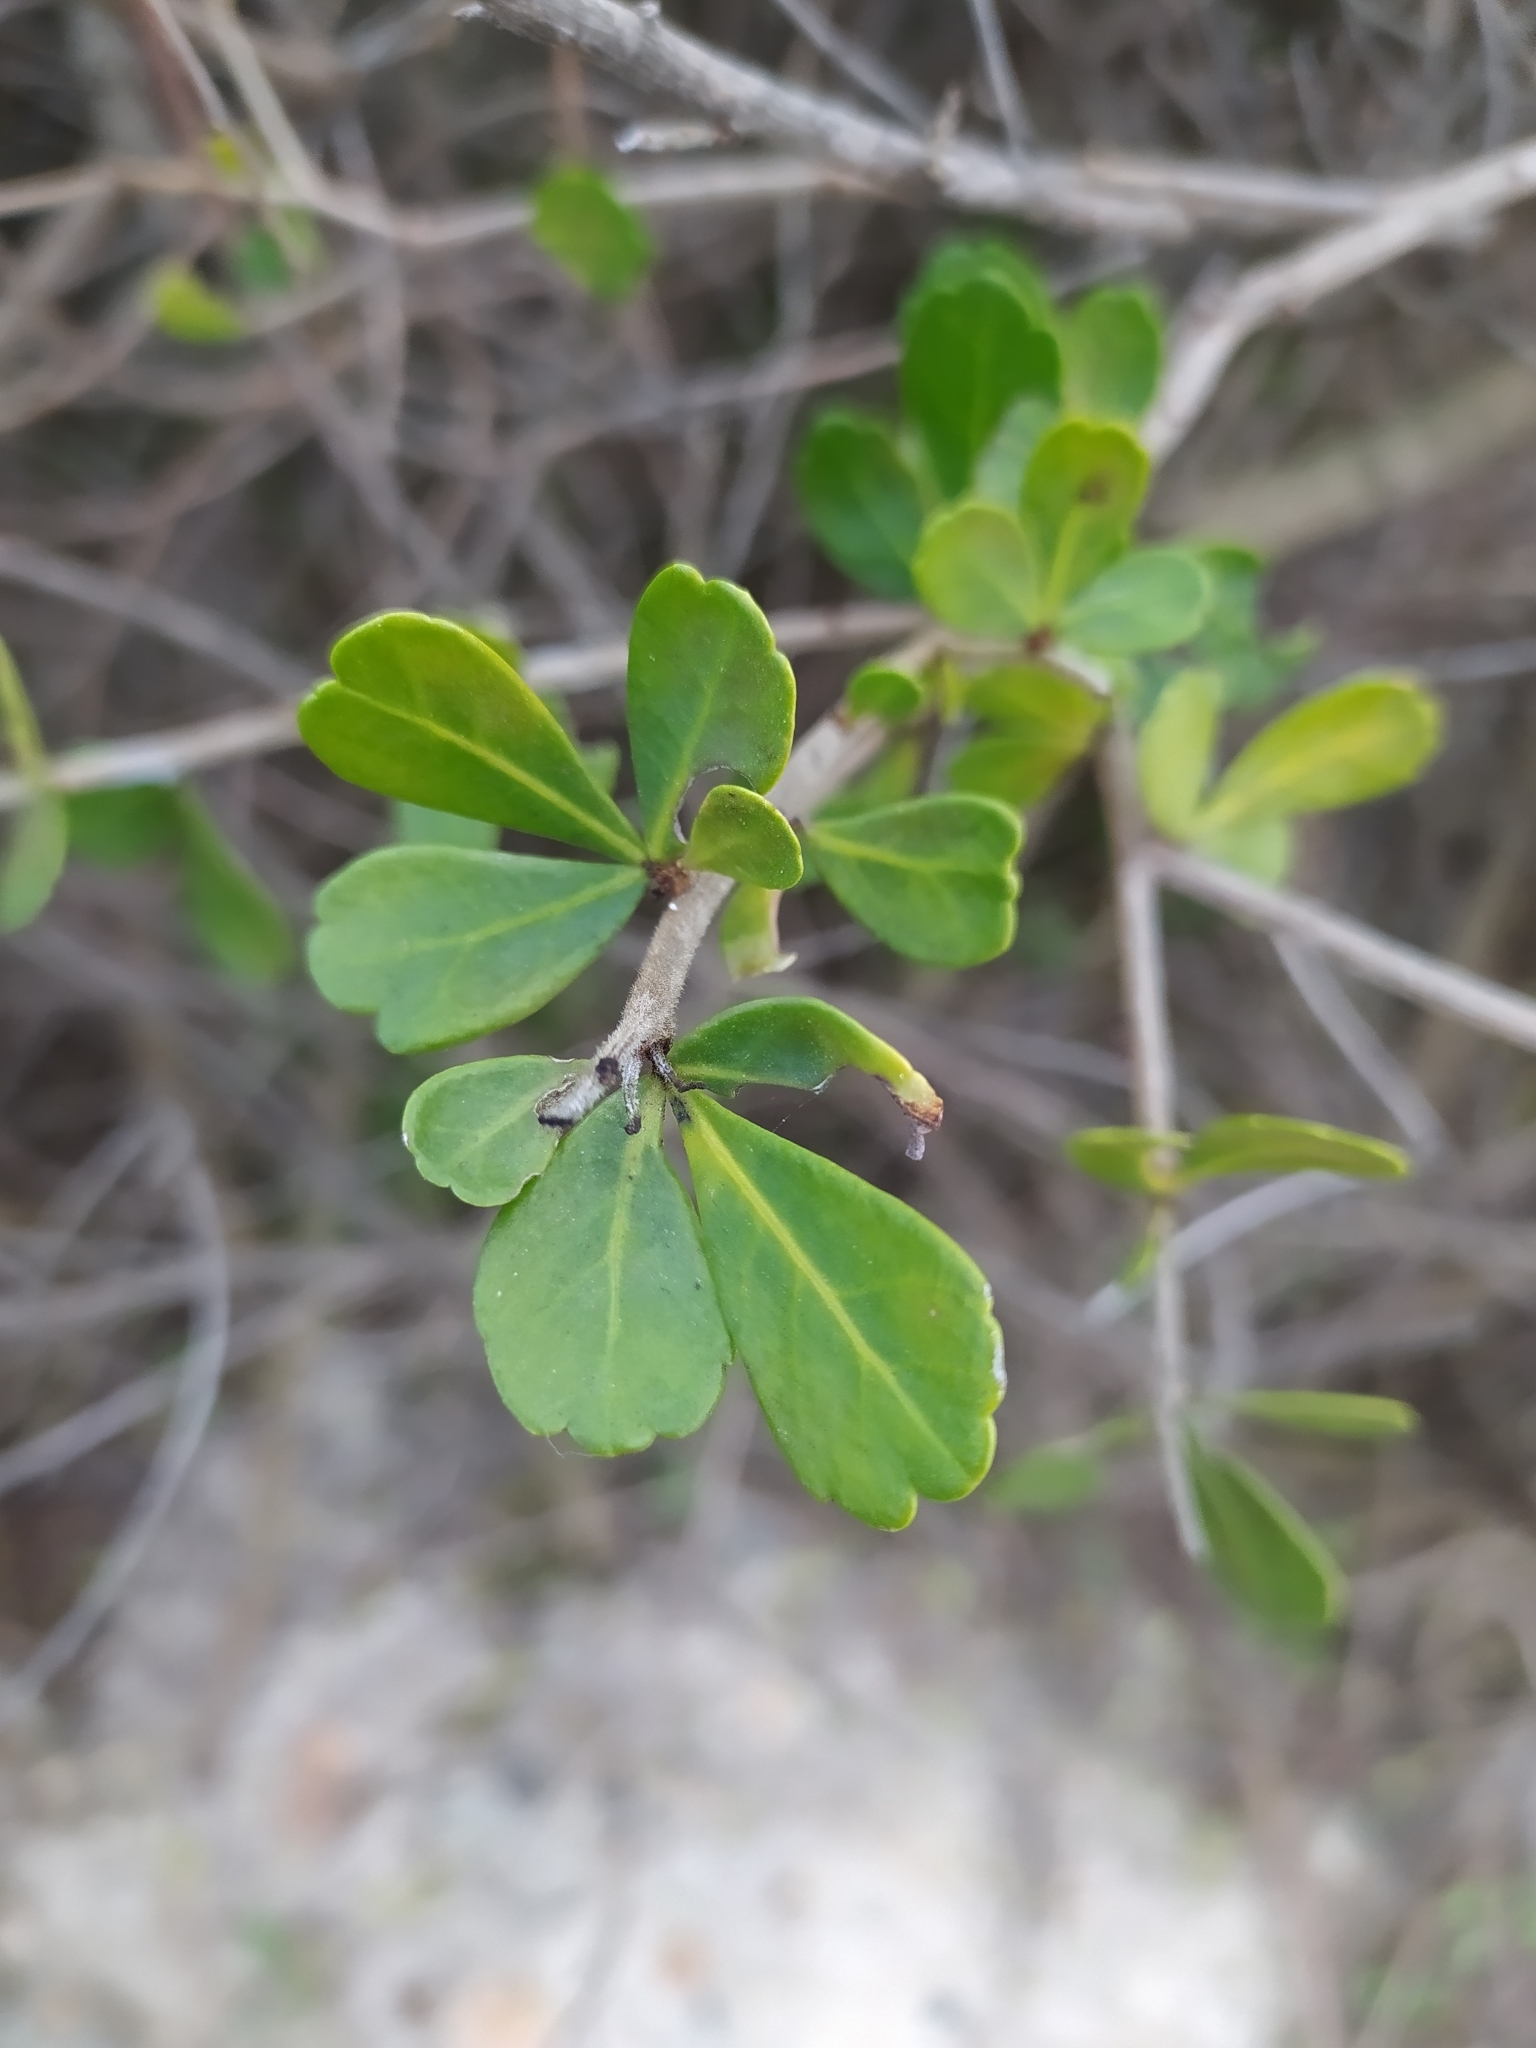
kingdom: Plantae
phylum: Tracheophyta
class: Magnoliopsida
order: Sapindales
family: Anacardiaceae
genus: Searsia
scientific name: Searsia crenata
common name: Crowberry
